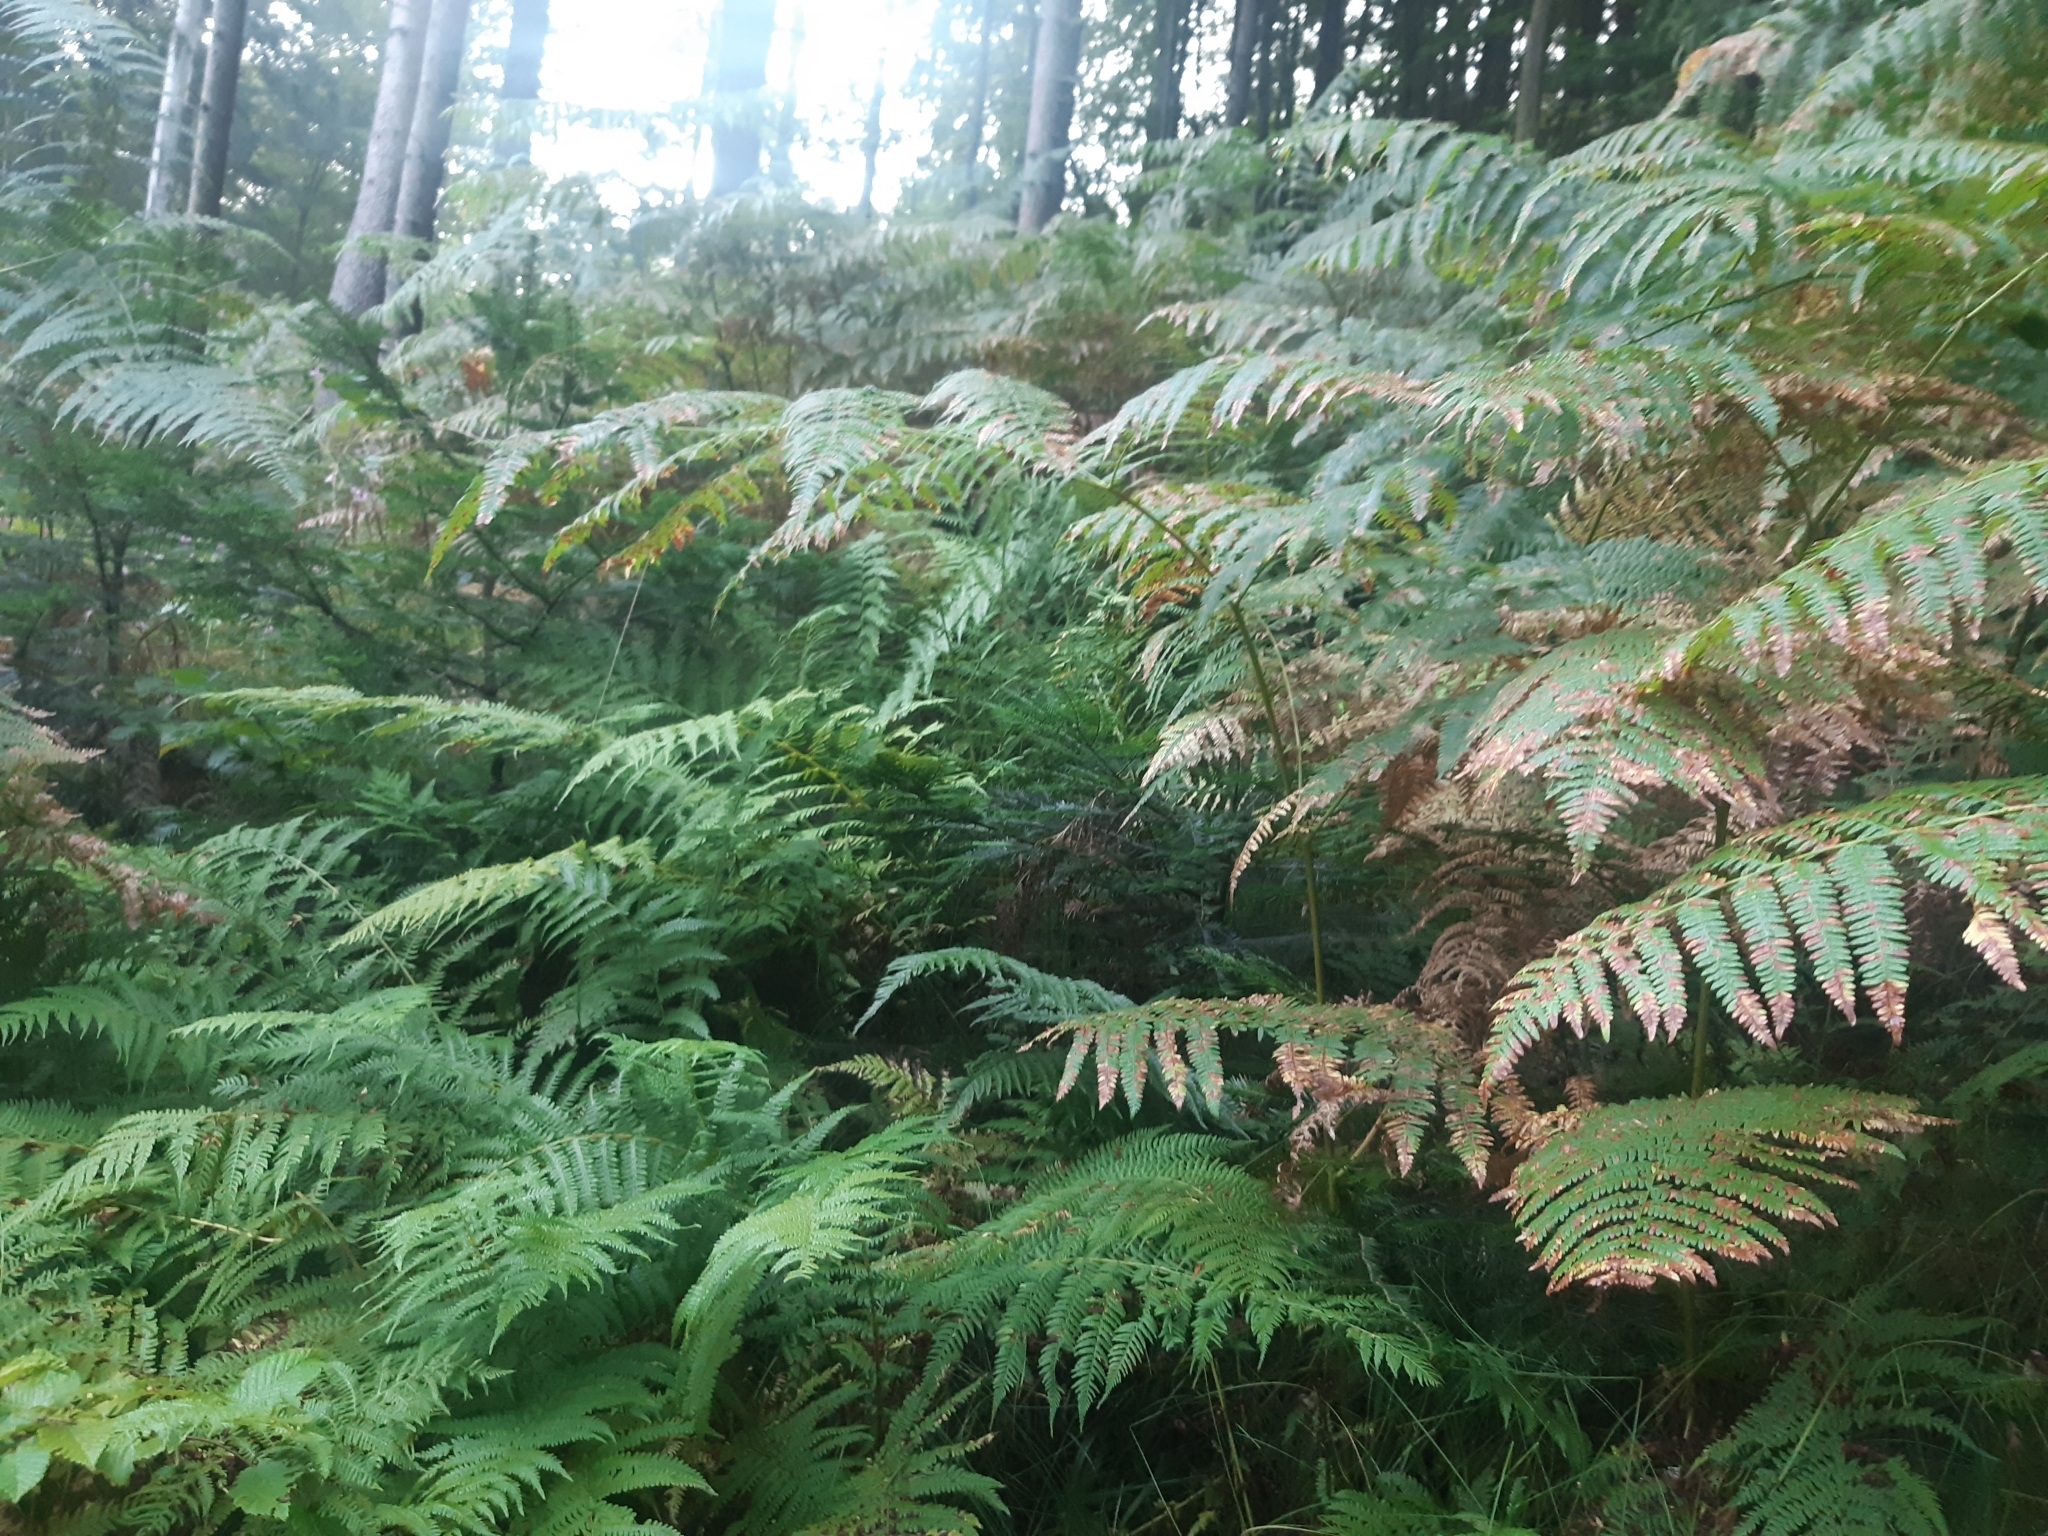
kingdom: Plantae
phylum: Tracheophyta
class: Polypodiopsida
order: Polypodiales
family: Dennstaedtiaceae
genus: Pteridium
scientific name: Pteridium aquilinum
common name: Bracken
